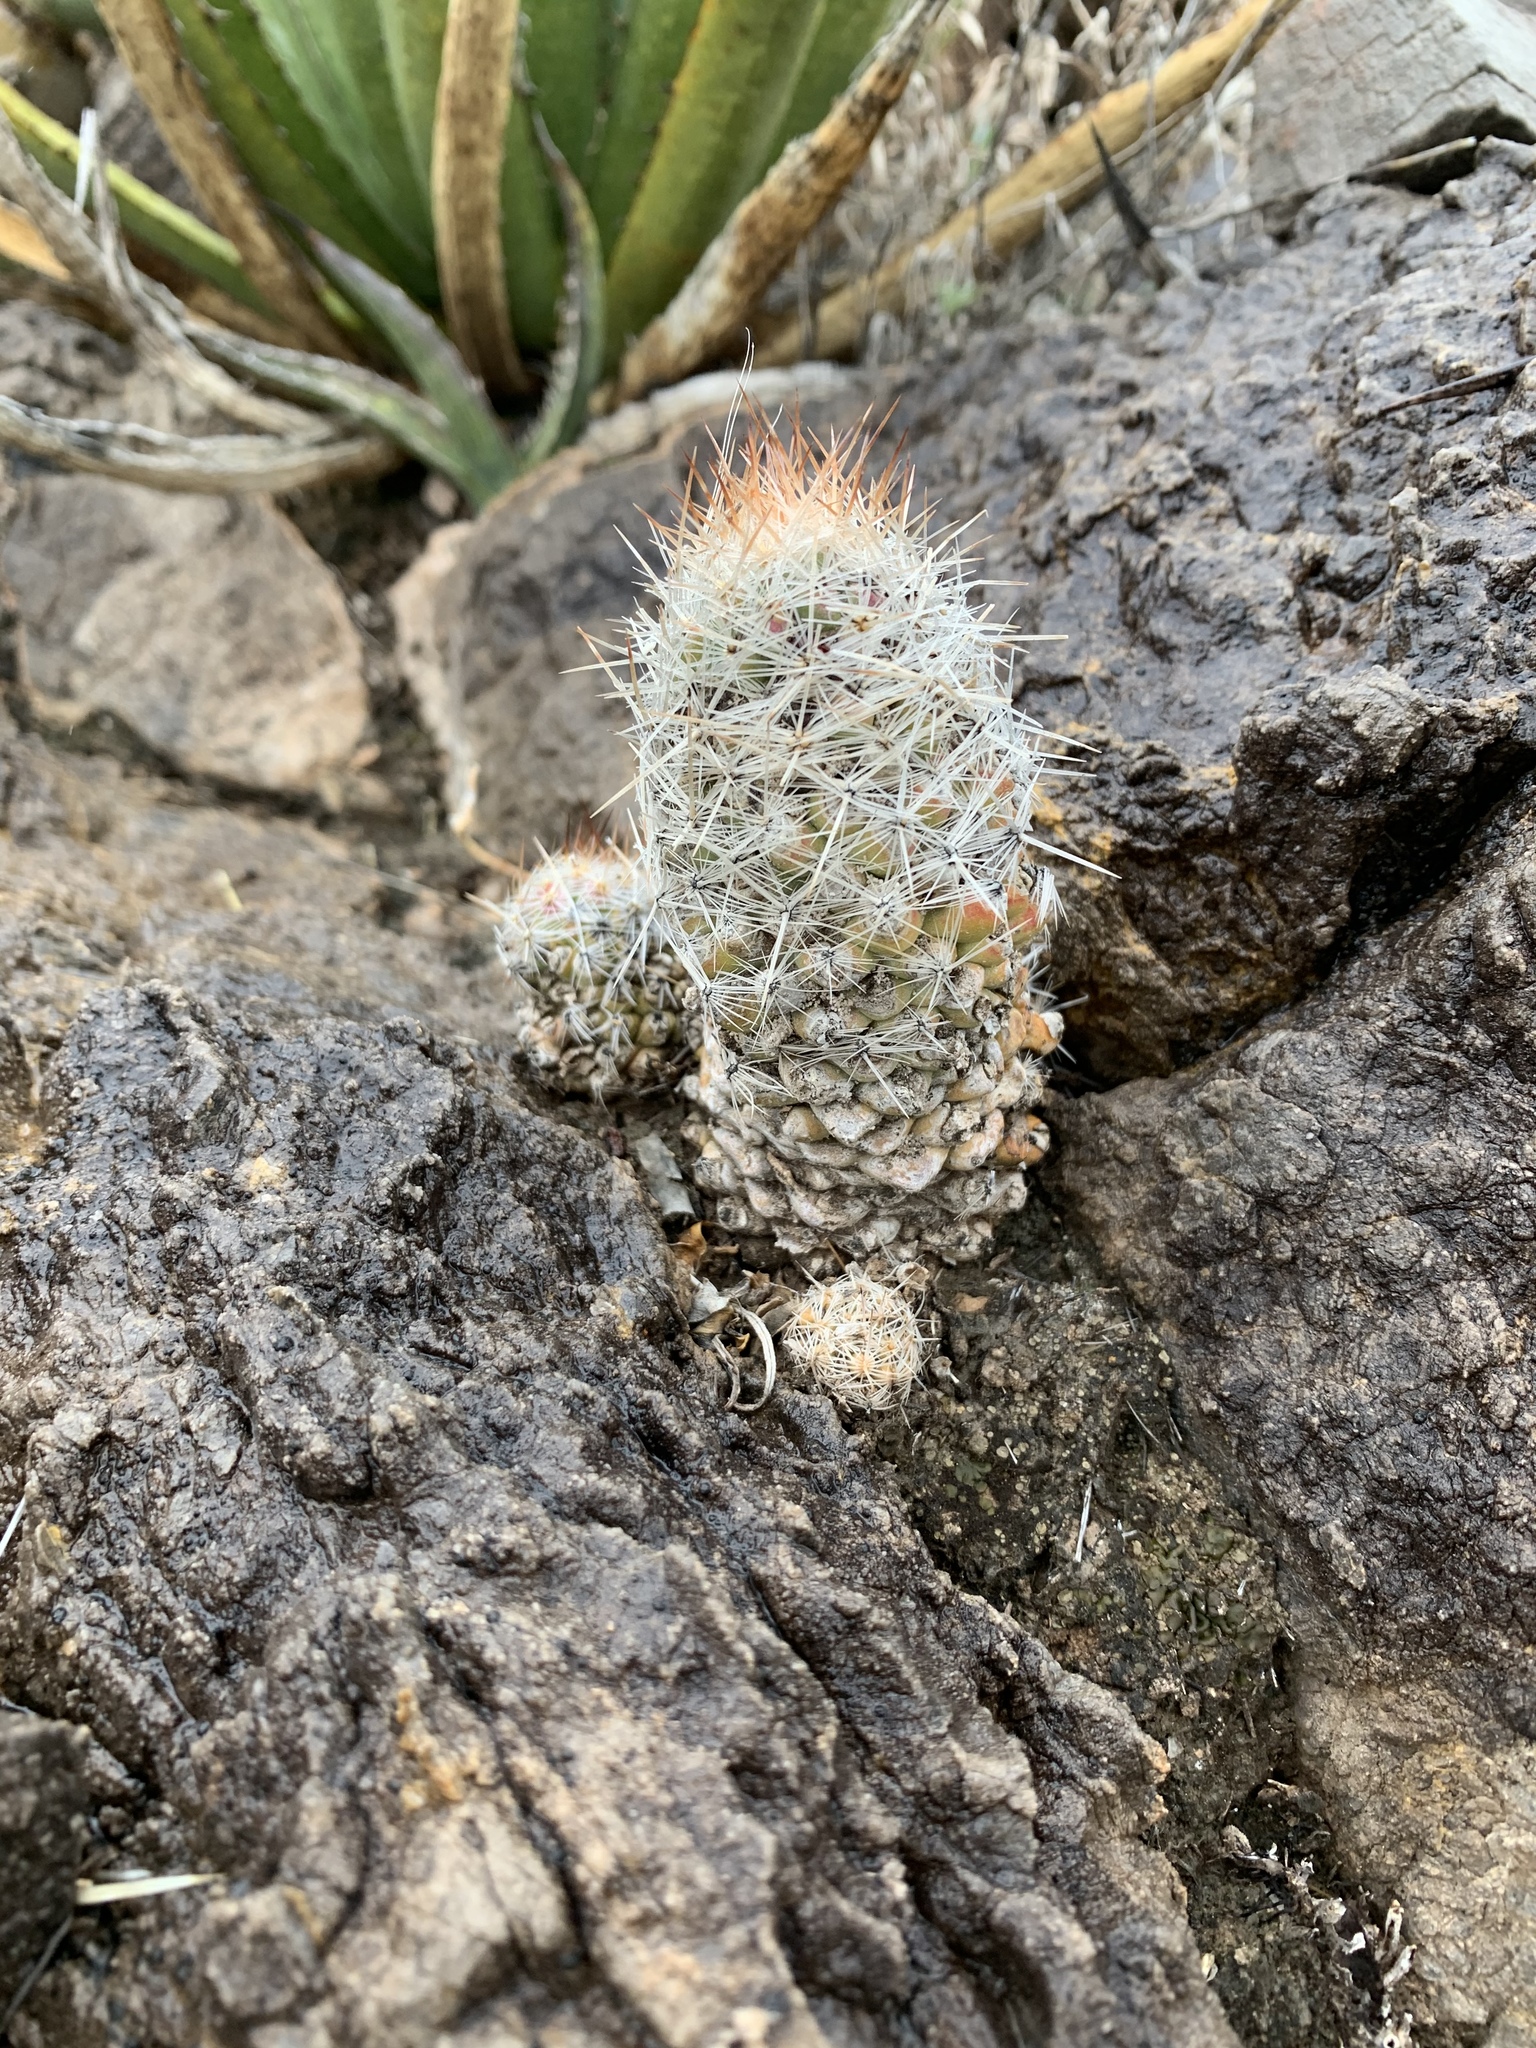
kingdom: Plantae
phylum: Tracheophyta
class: Magnoliopsida
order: Caryophyllales
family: Cactaceae
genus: Pelecyphora
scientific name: Pelecyphora tuberculosa
